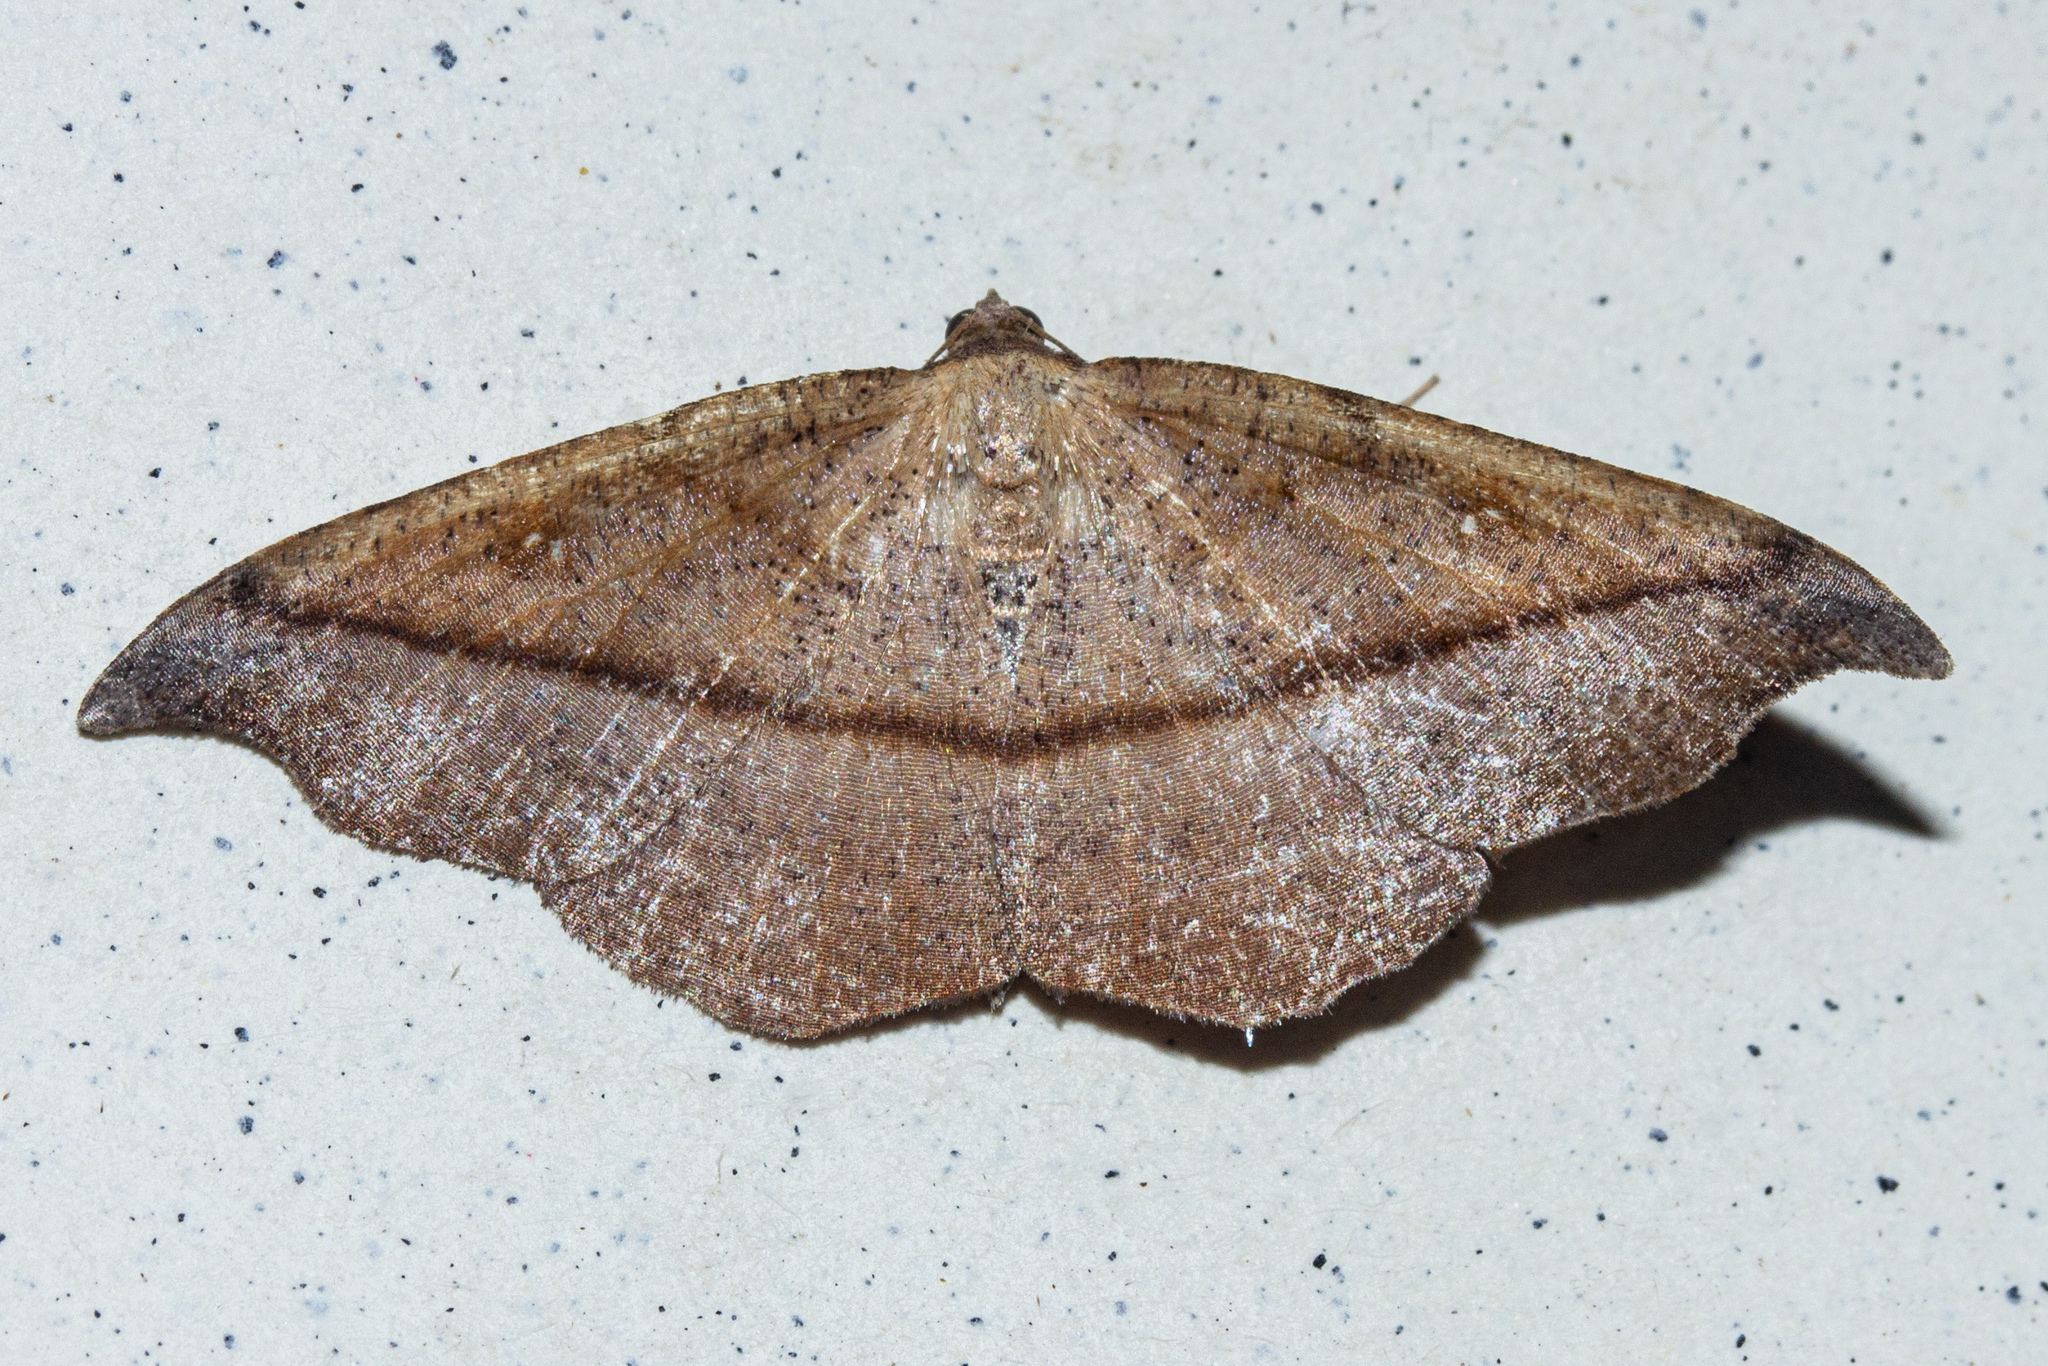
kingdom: Animalia
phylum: Arthropoda
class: Insecta
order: Lepidoptera
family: Geometridae
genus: Sarisa
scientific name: Sarisa muriferata
